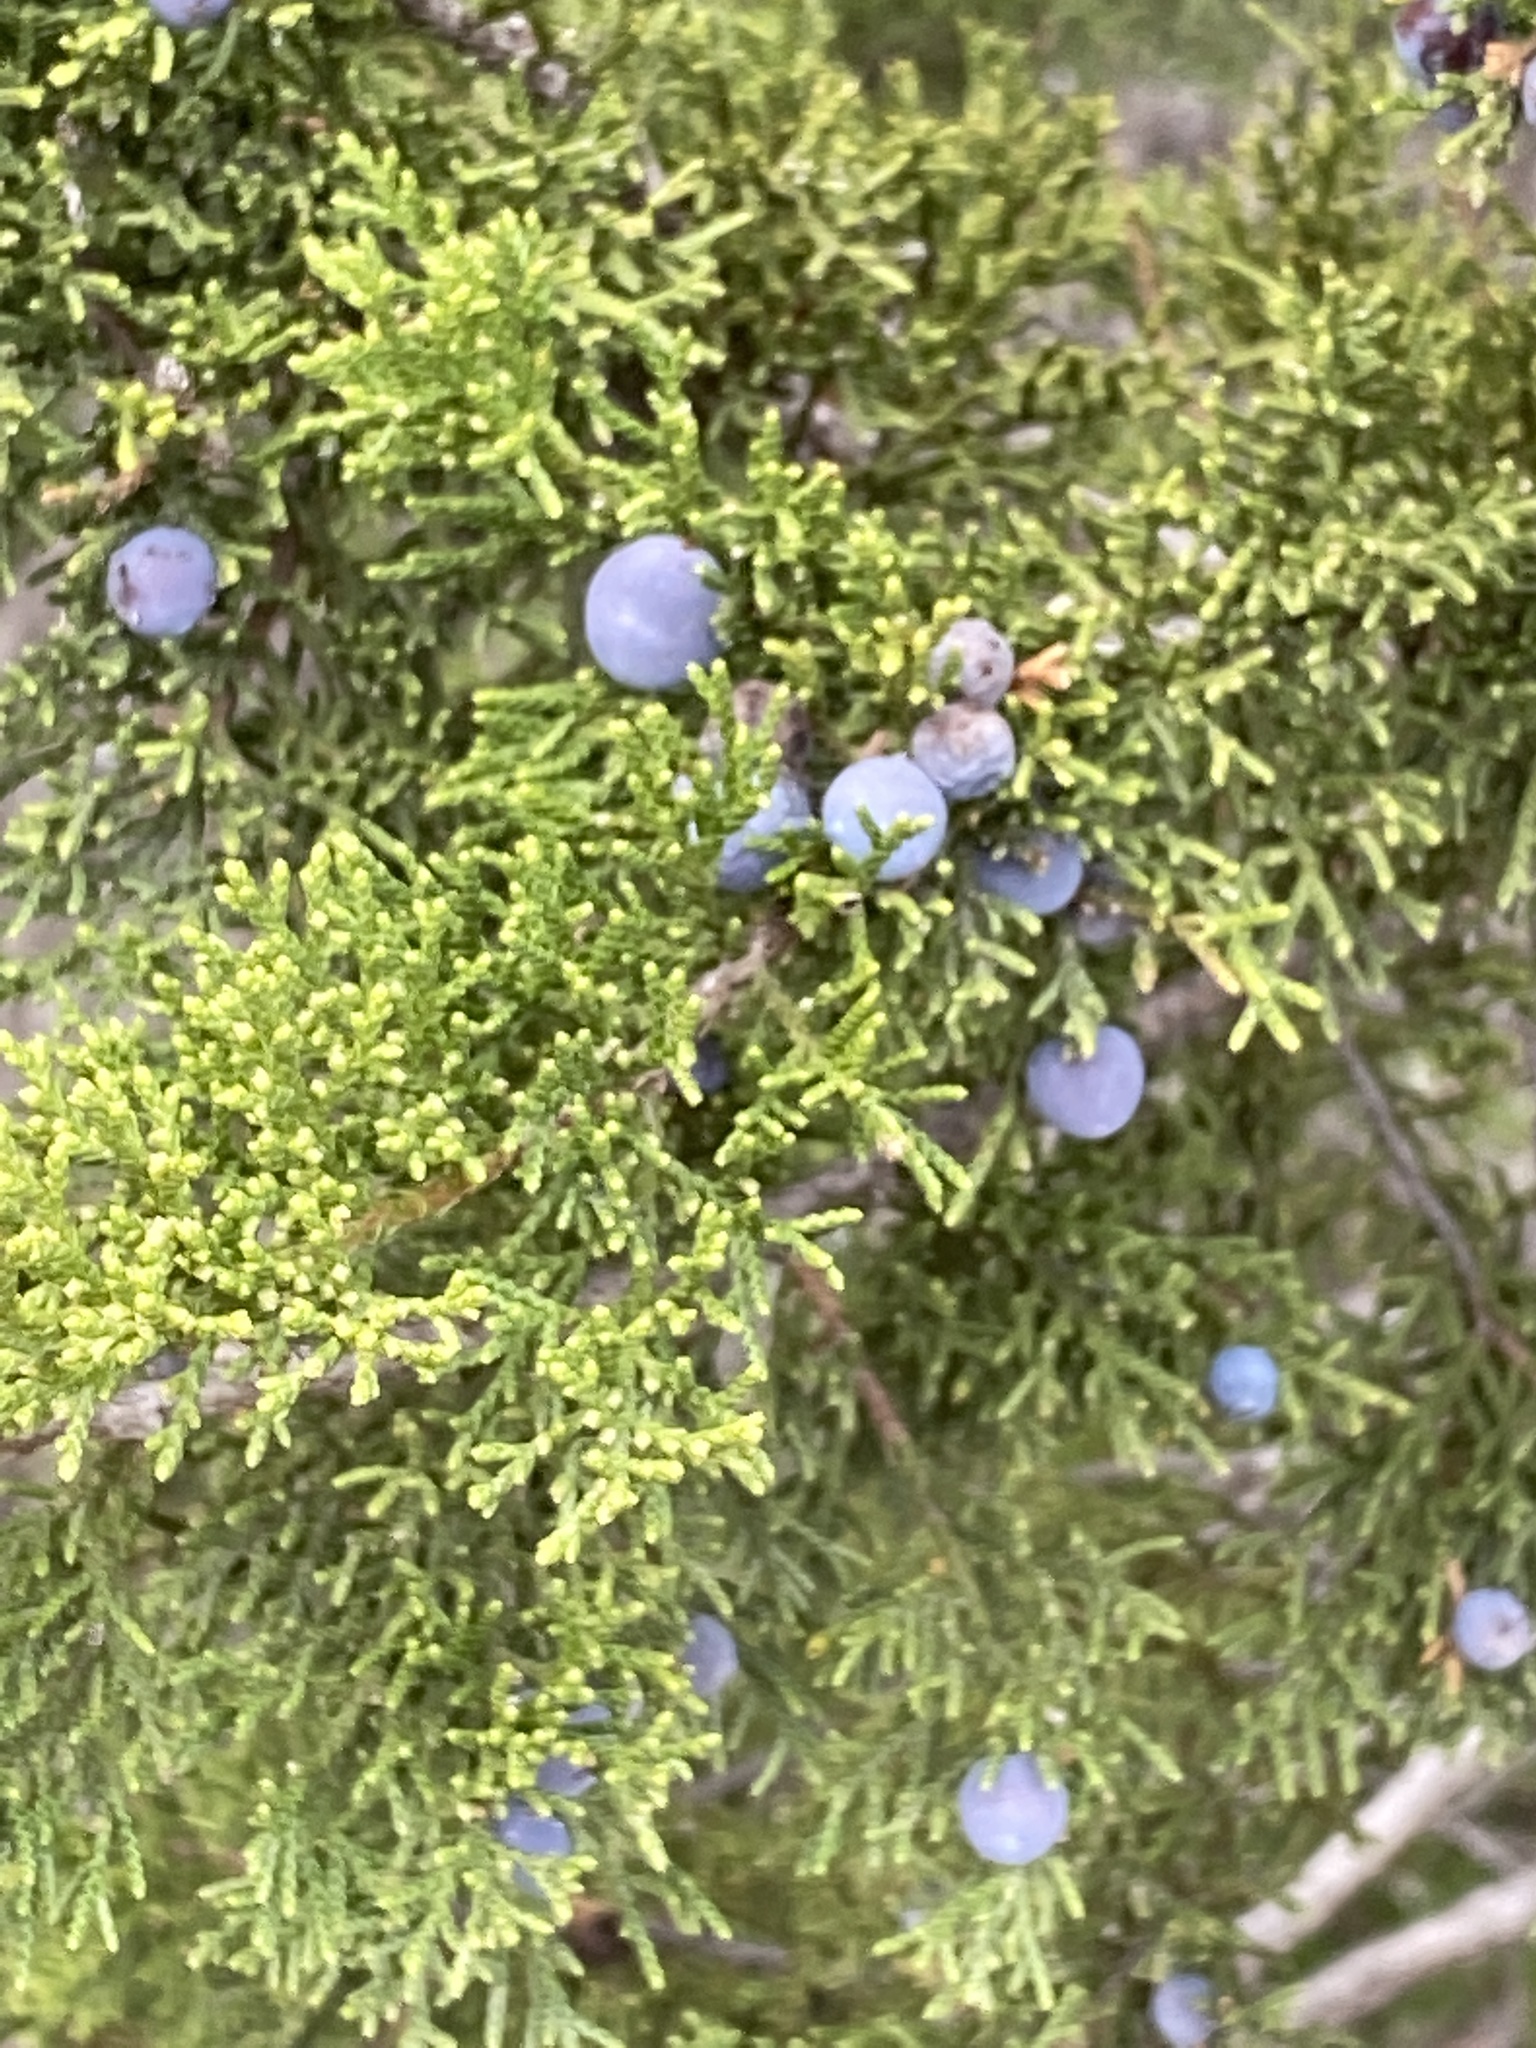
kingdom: Plantae
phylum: Tracheophyta
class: Pinopsida
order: Pinales
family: Cupressaceae
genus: Juniperus
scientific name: Juniperus ashei
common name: Mexican juniper
